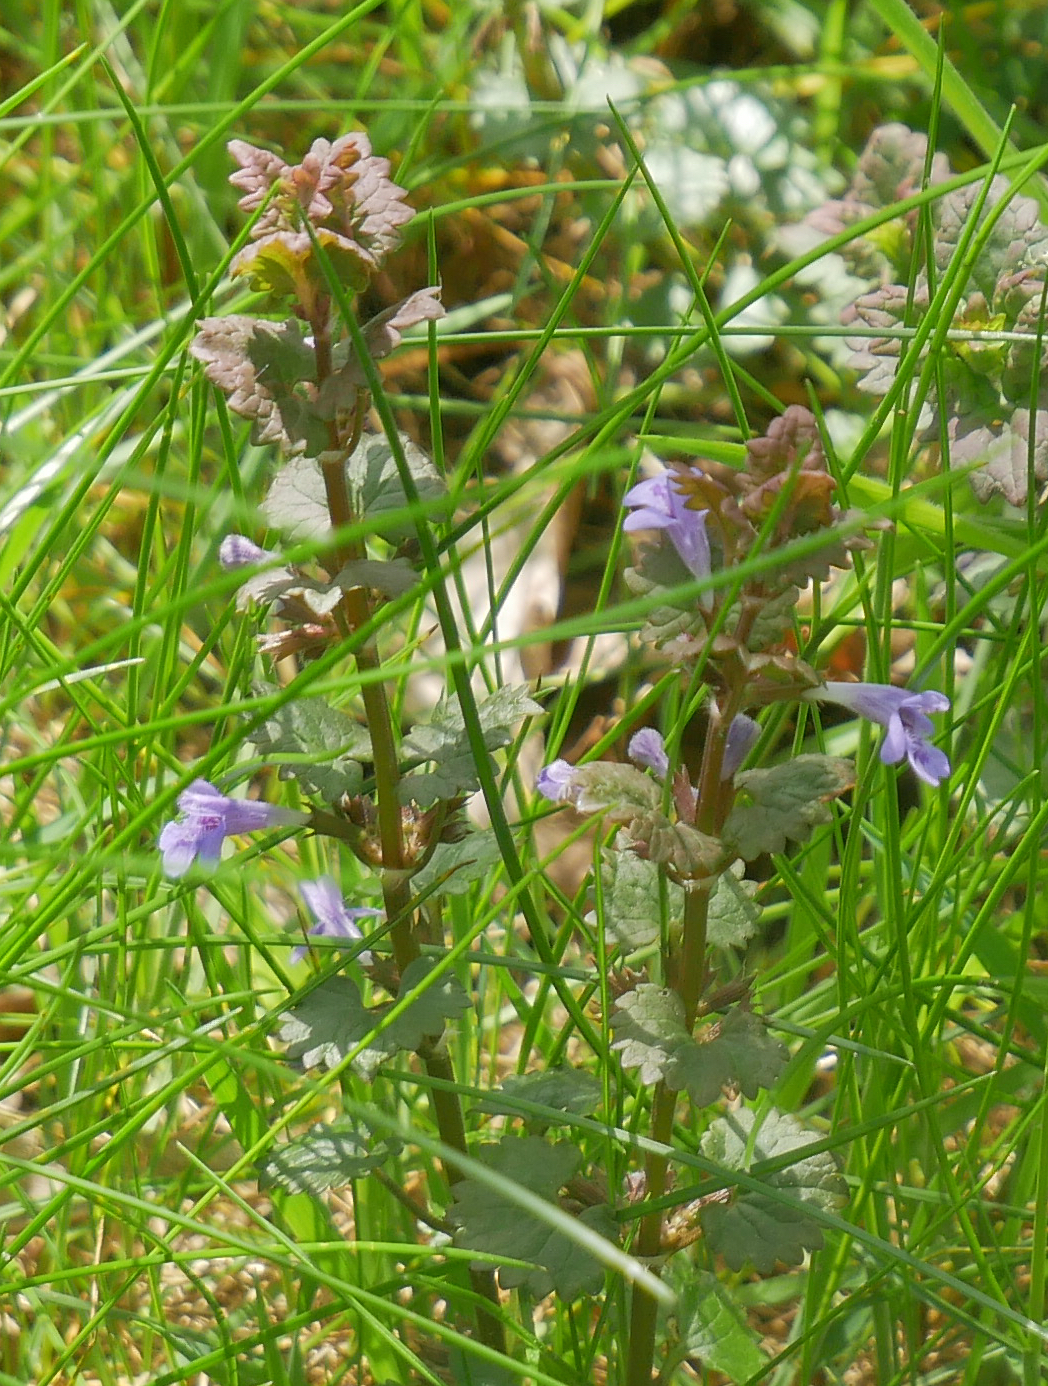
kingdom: Plantae
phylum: Tracheophyta
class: Magnoliopsida
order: Lamiales
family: Lamiaceae
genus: Glechoma
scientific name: Glechoma hederacea
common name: Ground ivy
